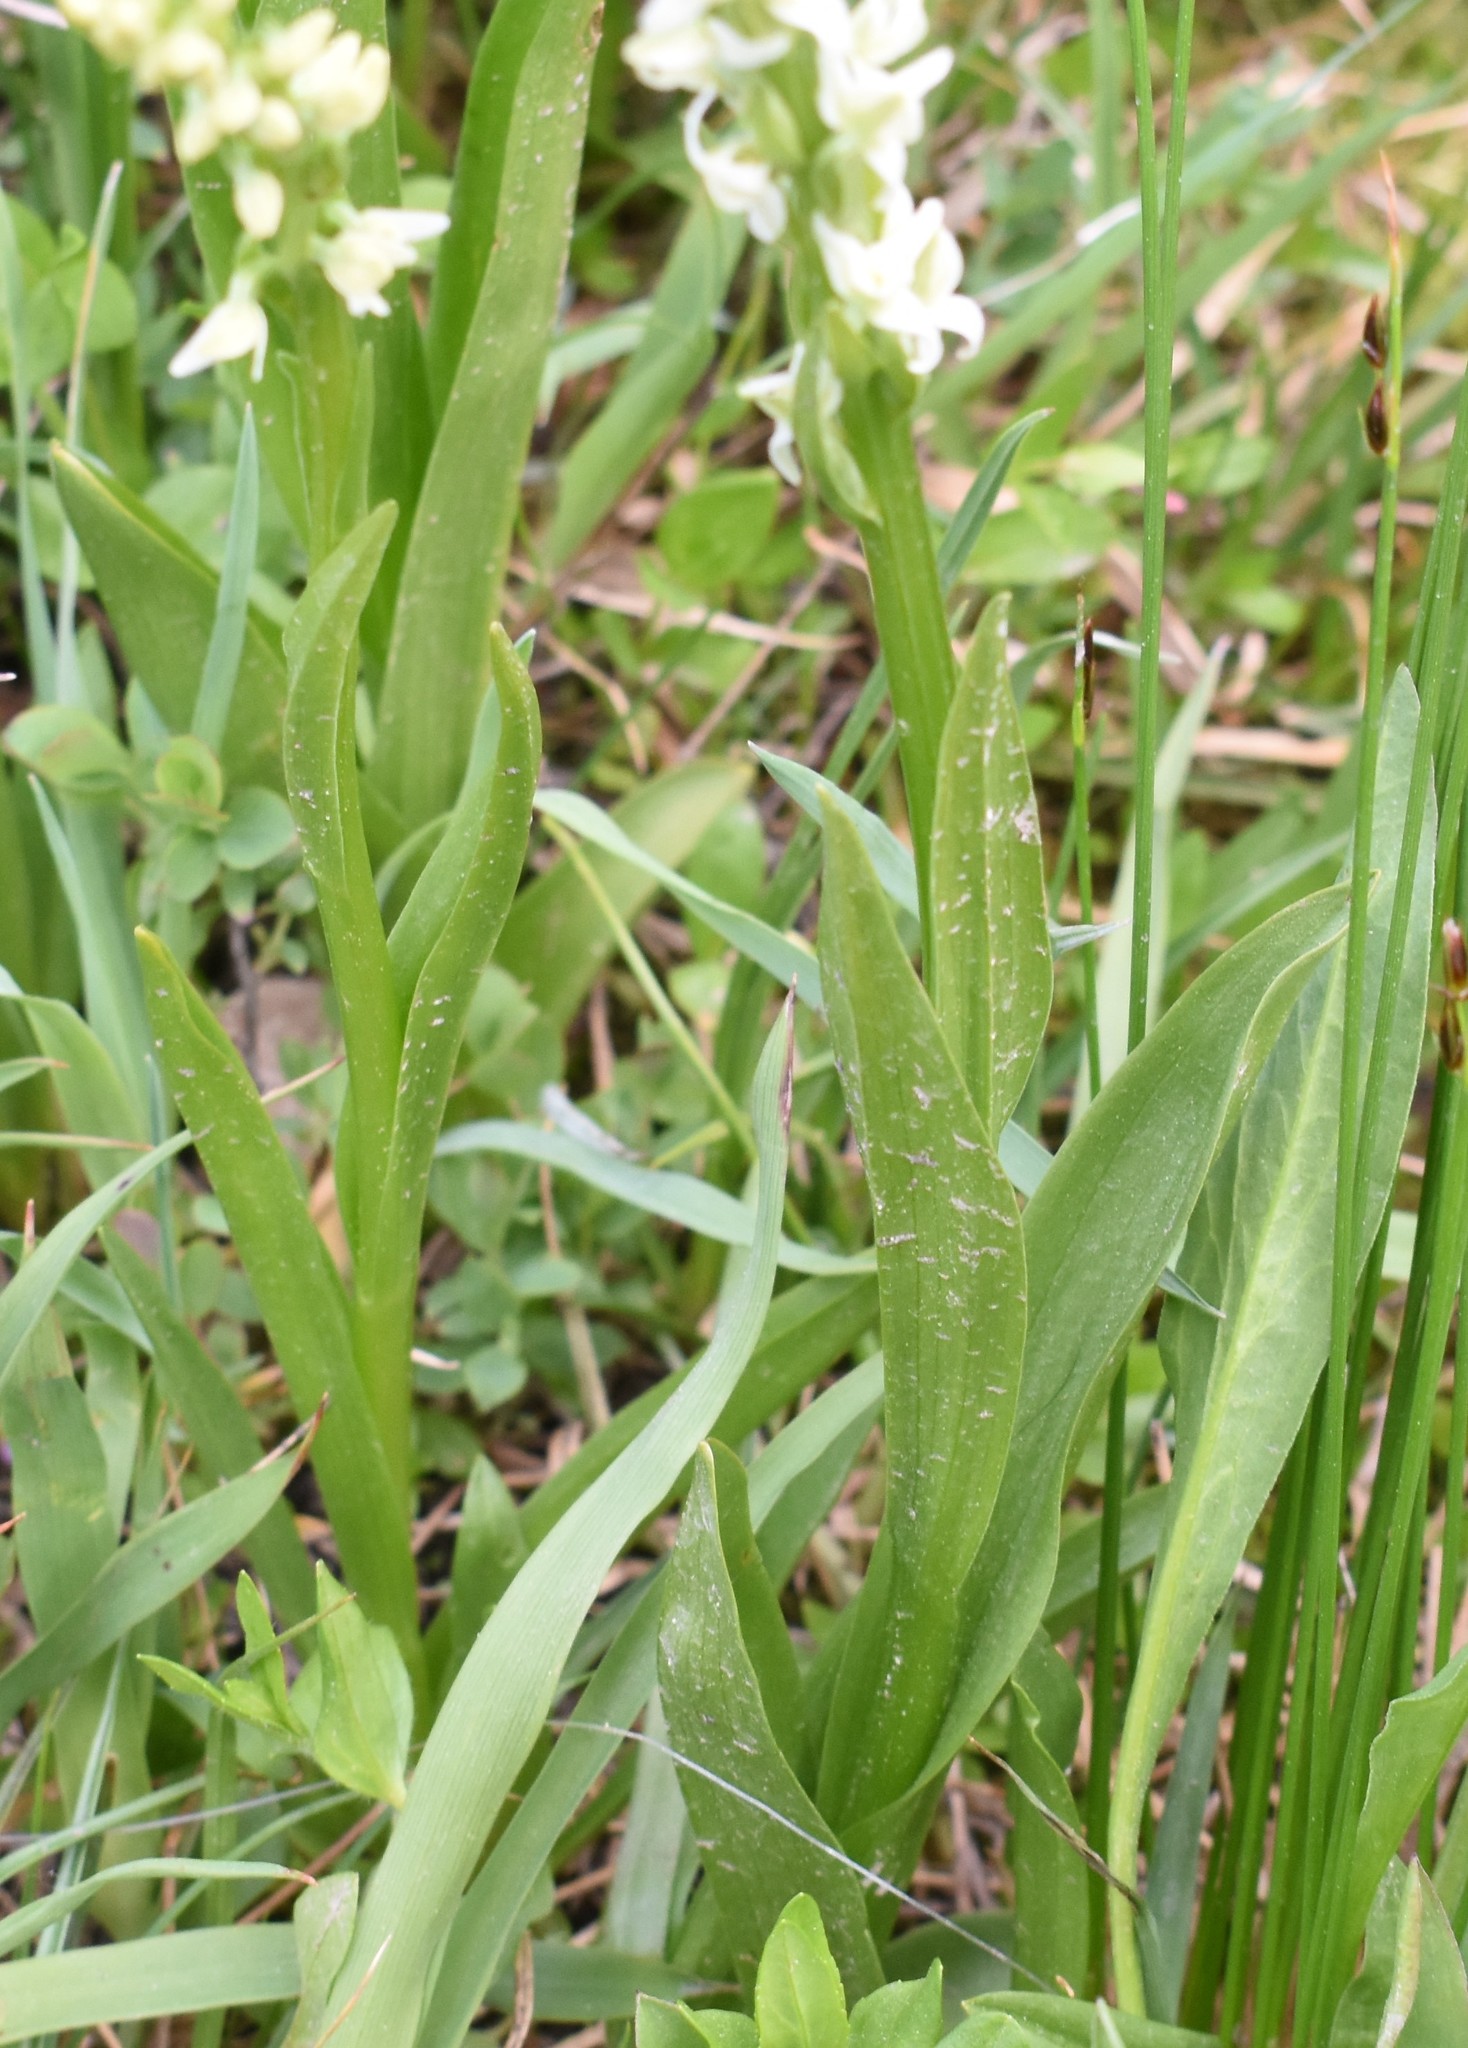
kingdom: Plantae
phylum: Tracheophyta
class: Liliopsida
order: Asparagales
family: Orchidaceae
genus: Platanthera
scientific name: Platanthera dilatata
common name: Bog candles
